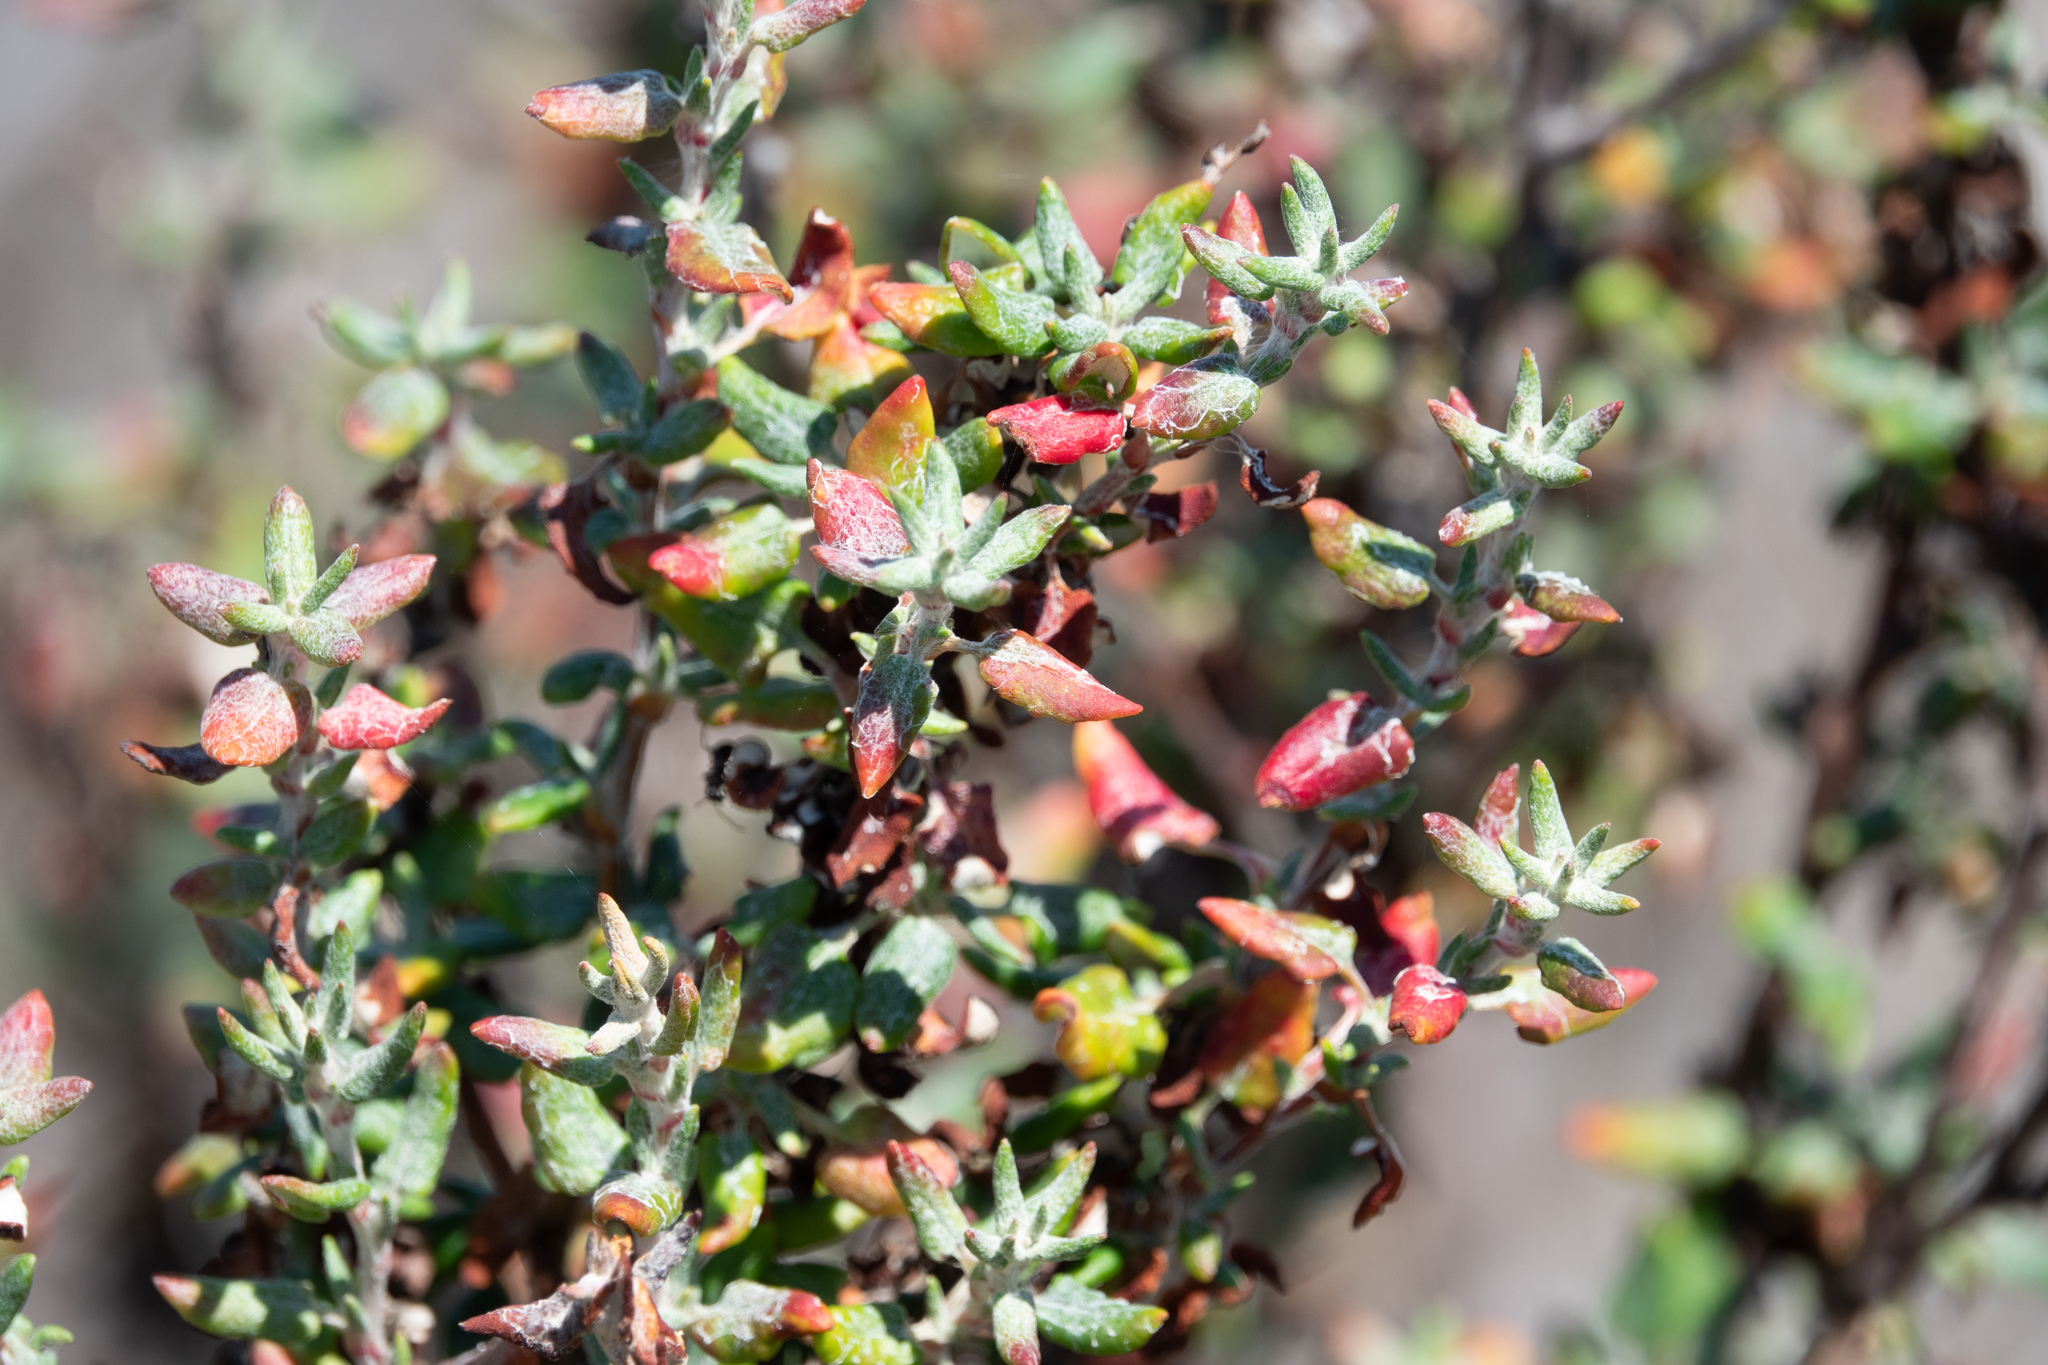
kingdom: Plantae
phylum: Tracheophyta
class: Magnoliopsida
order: Caryophyllales
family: Polygonaceae
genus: Eriogonum
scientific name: Eriogonum parvifolium
